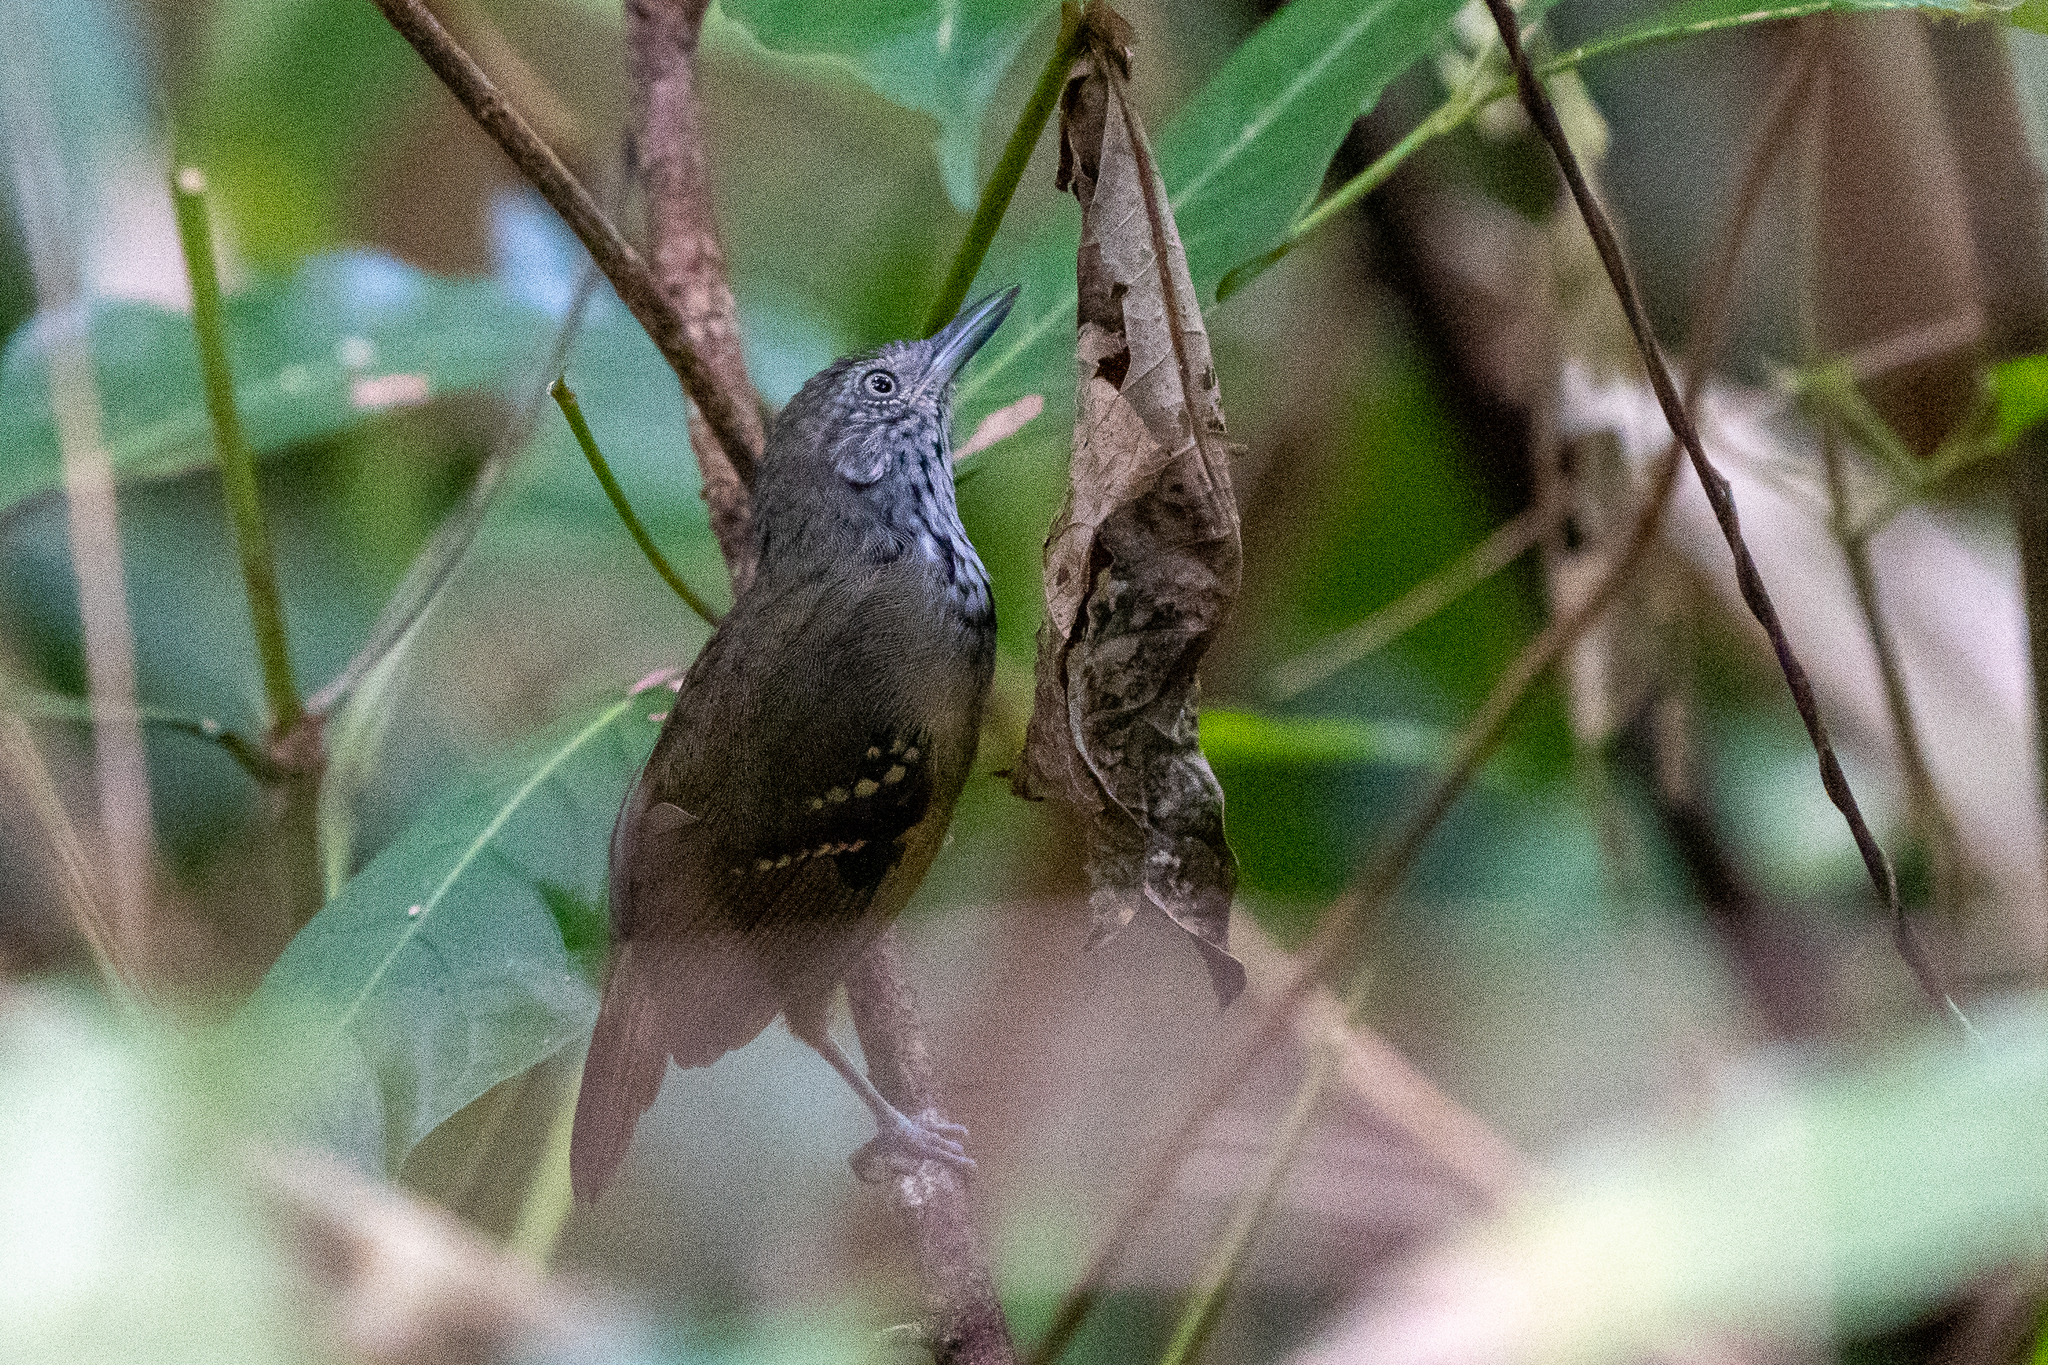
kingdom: Animalia
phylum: Chordata
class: Aves
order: Passeriformes
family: Thamnophilidae
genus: Epinecrophylla
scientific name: Epinecrophylla fulviventris
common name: Checker-throated antwren
